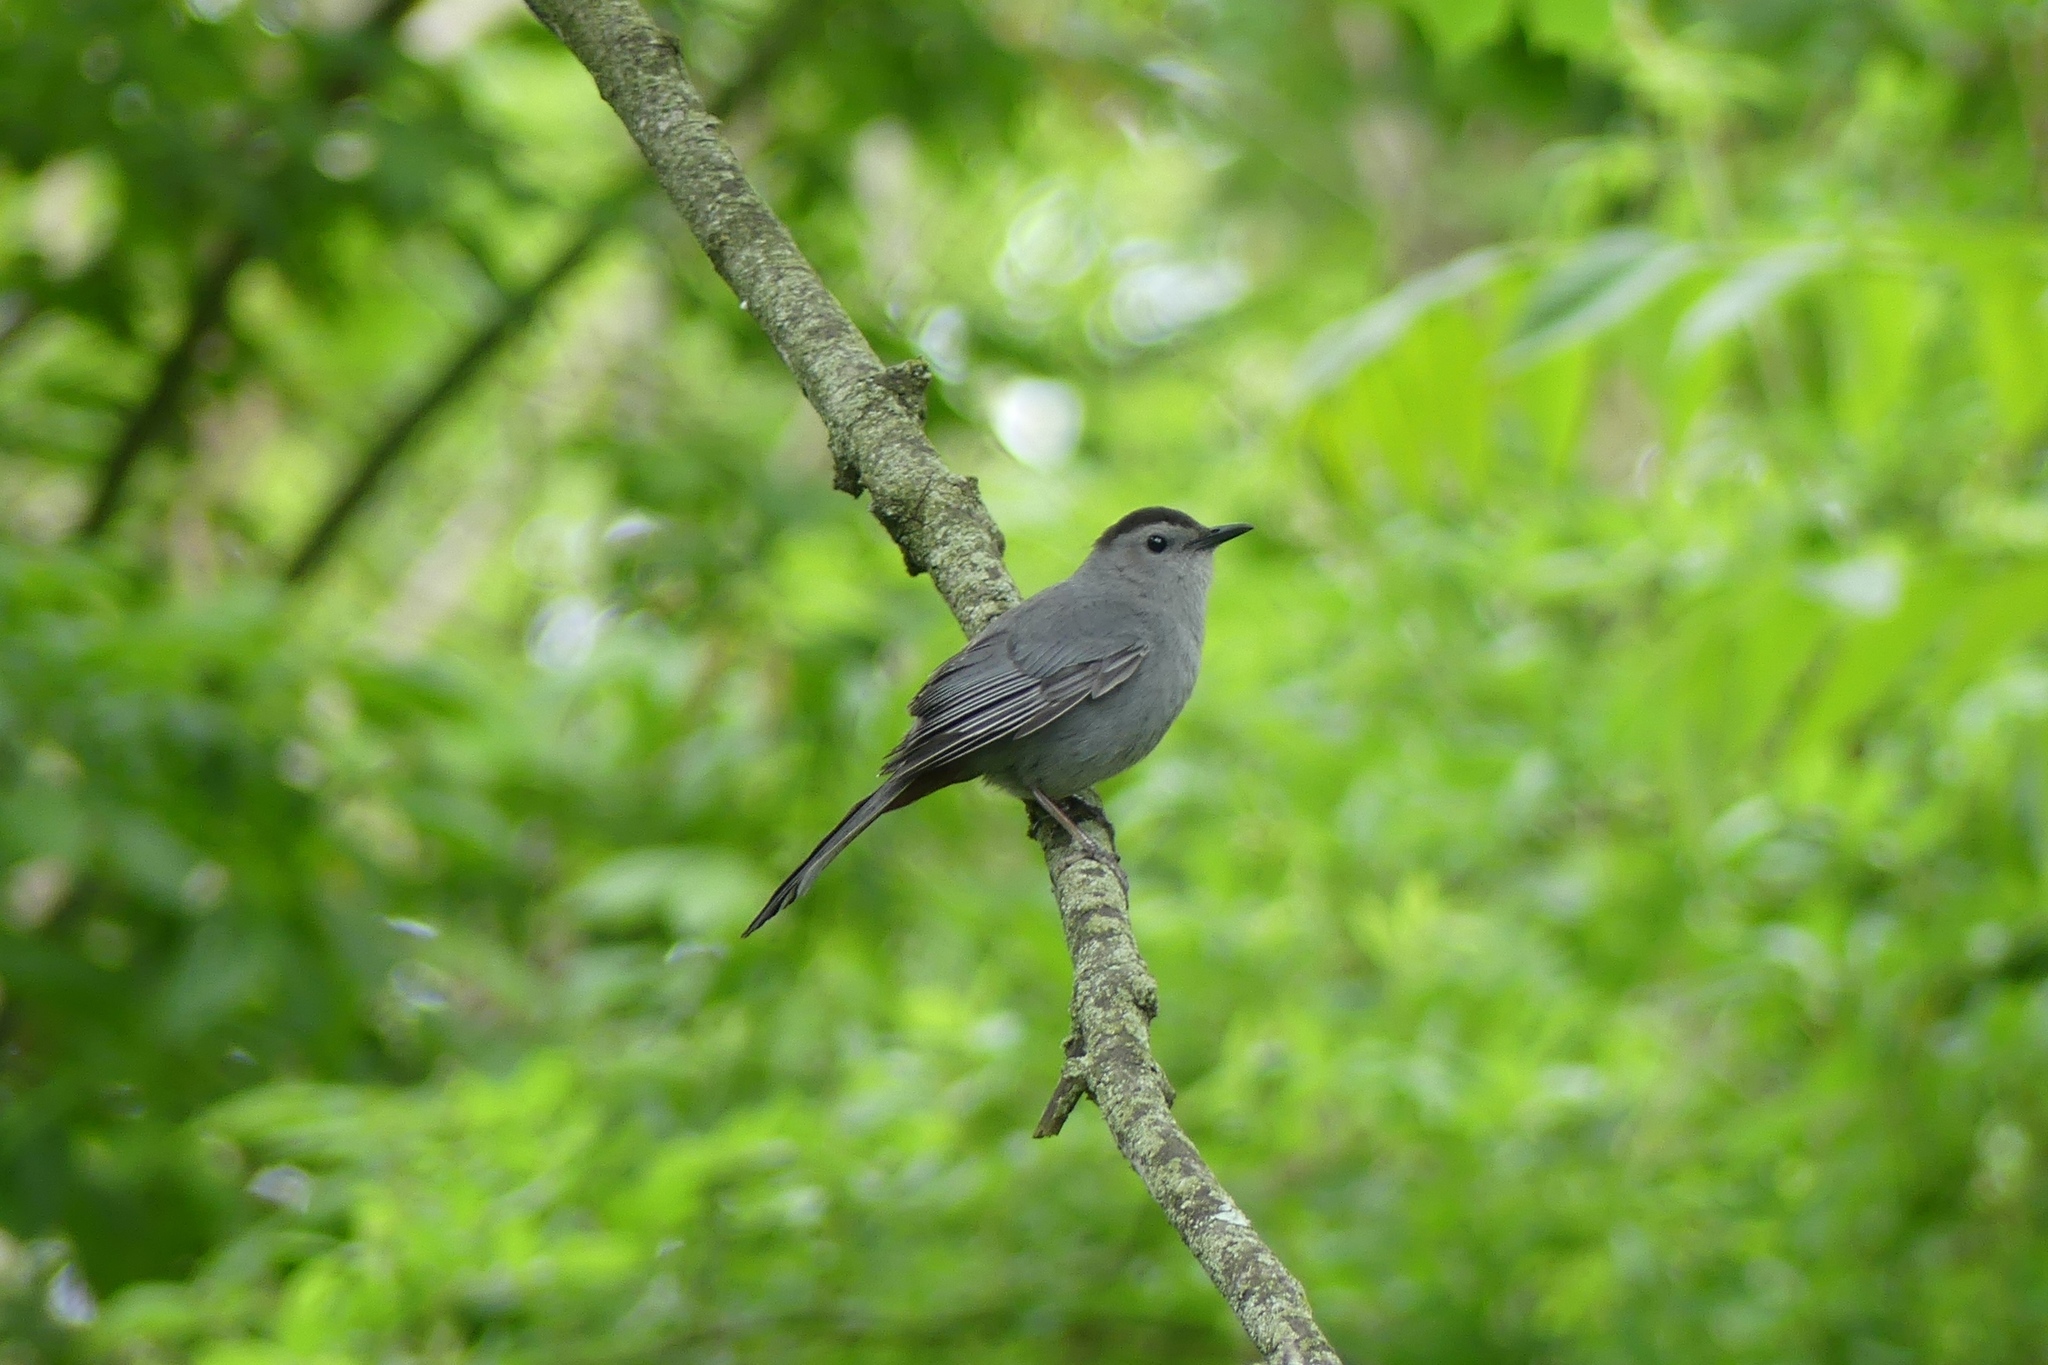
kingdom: Animalia
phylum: Chordata
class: Aves
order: Passeriformes
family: Mimidae
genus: Dumetella
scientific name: Dumetella carolinensis
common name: Gray catbird
